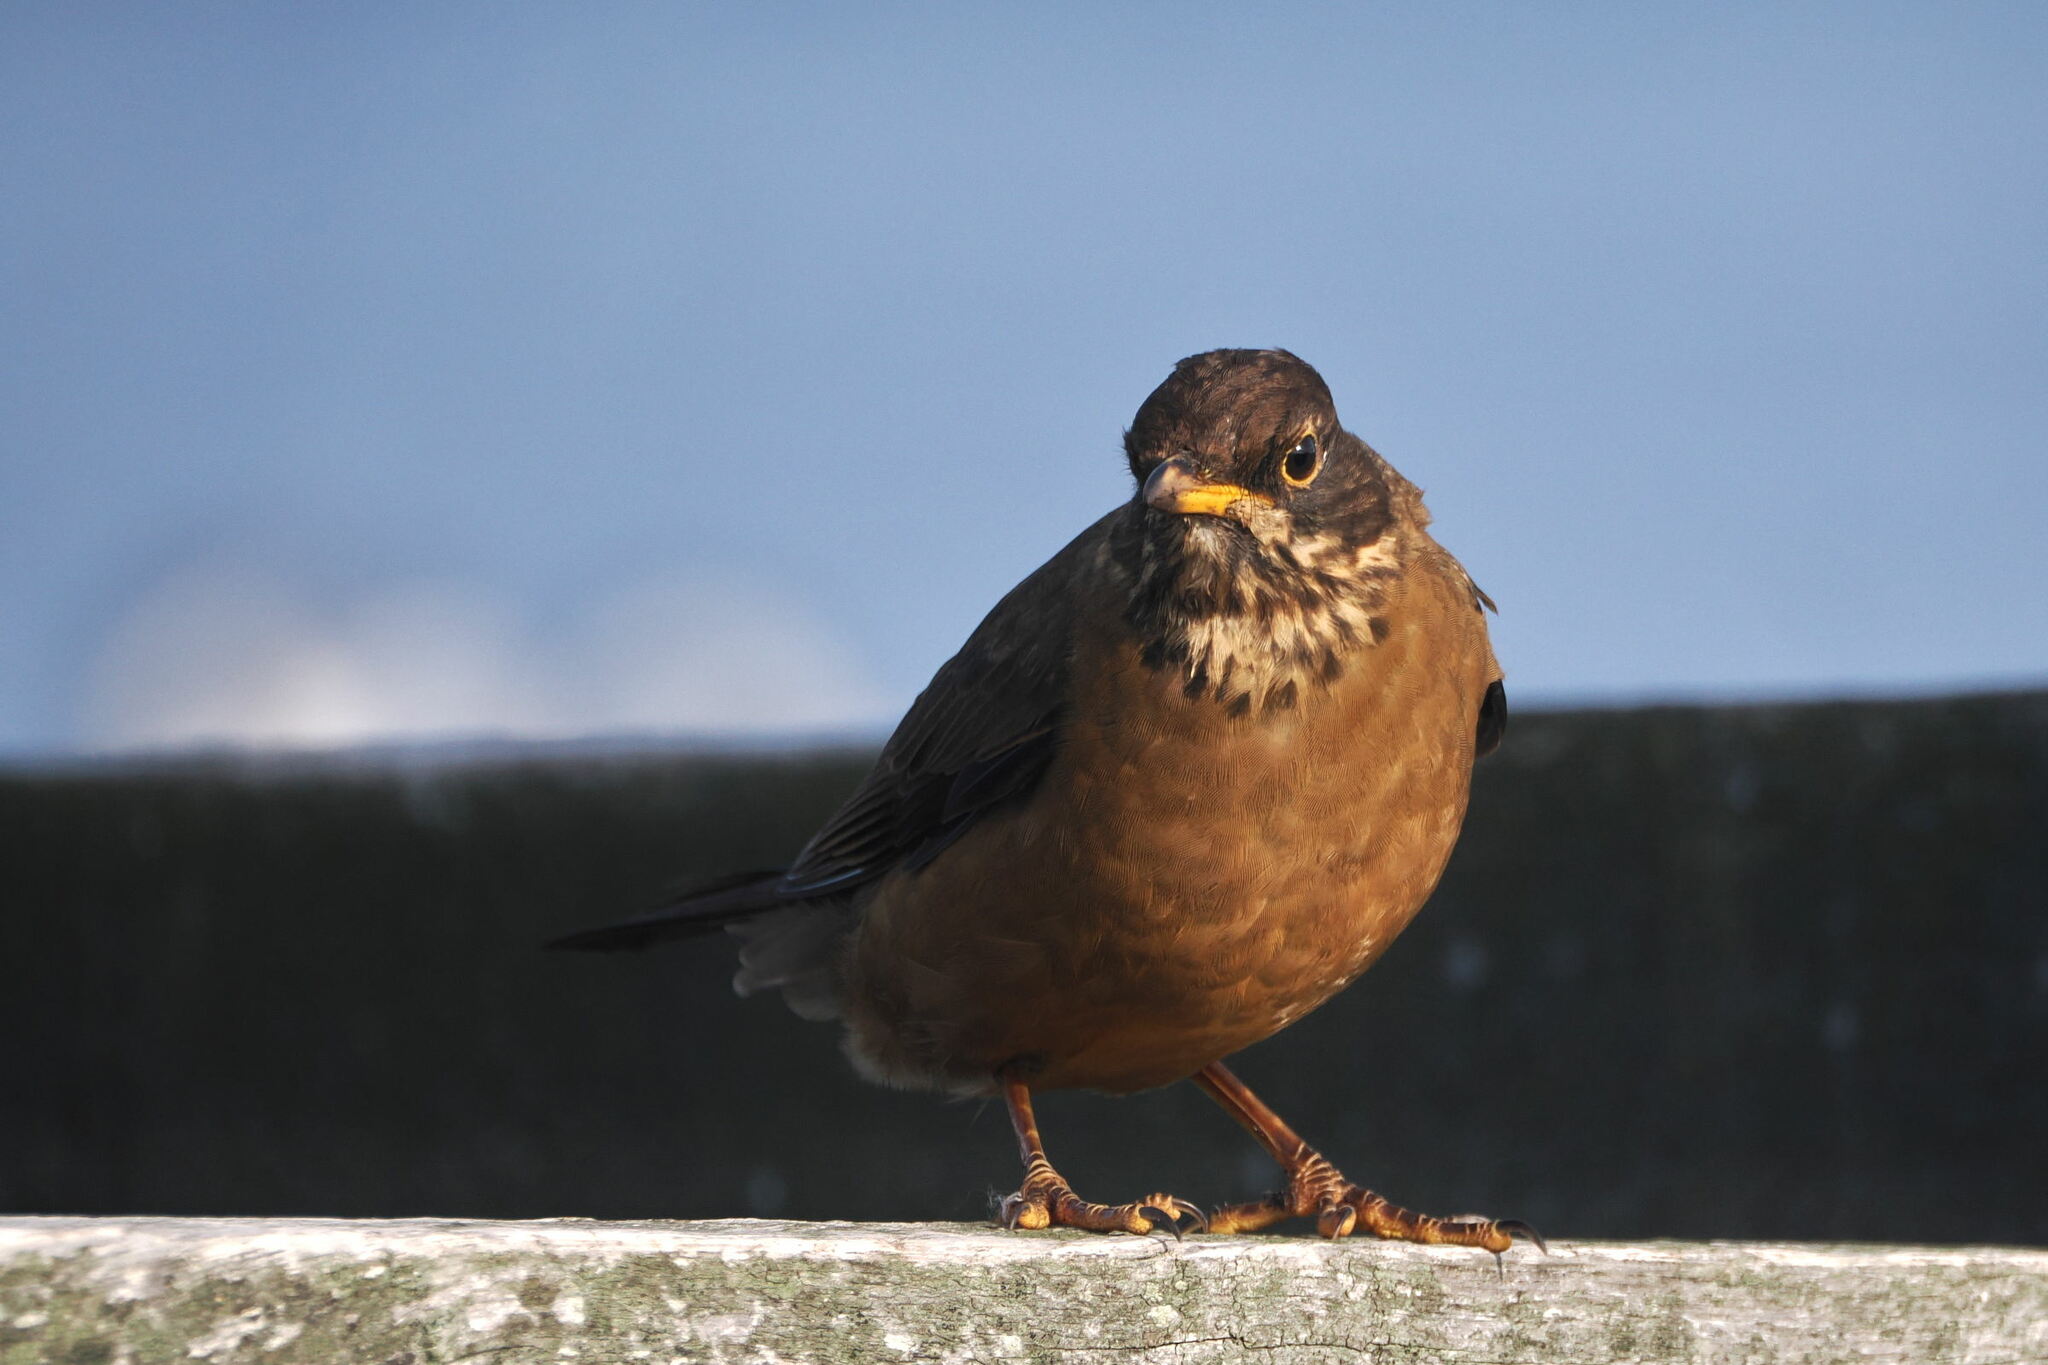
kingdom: Animalia
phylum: Chordata
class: Aves
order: Passeriformes
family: Turdidae
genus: Turdus
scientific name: Turdus falcklandii
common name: Austral thrush
